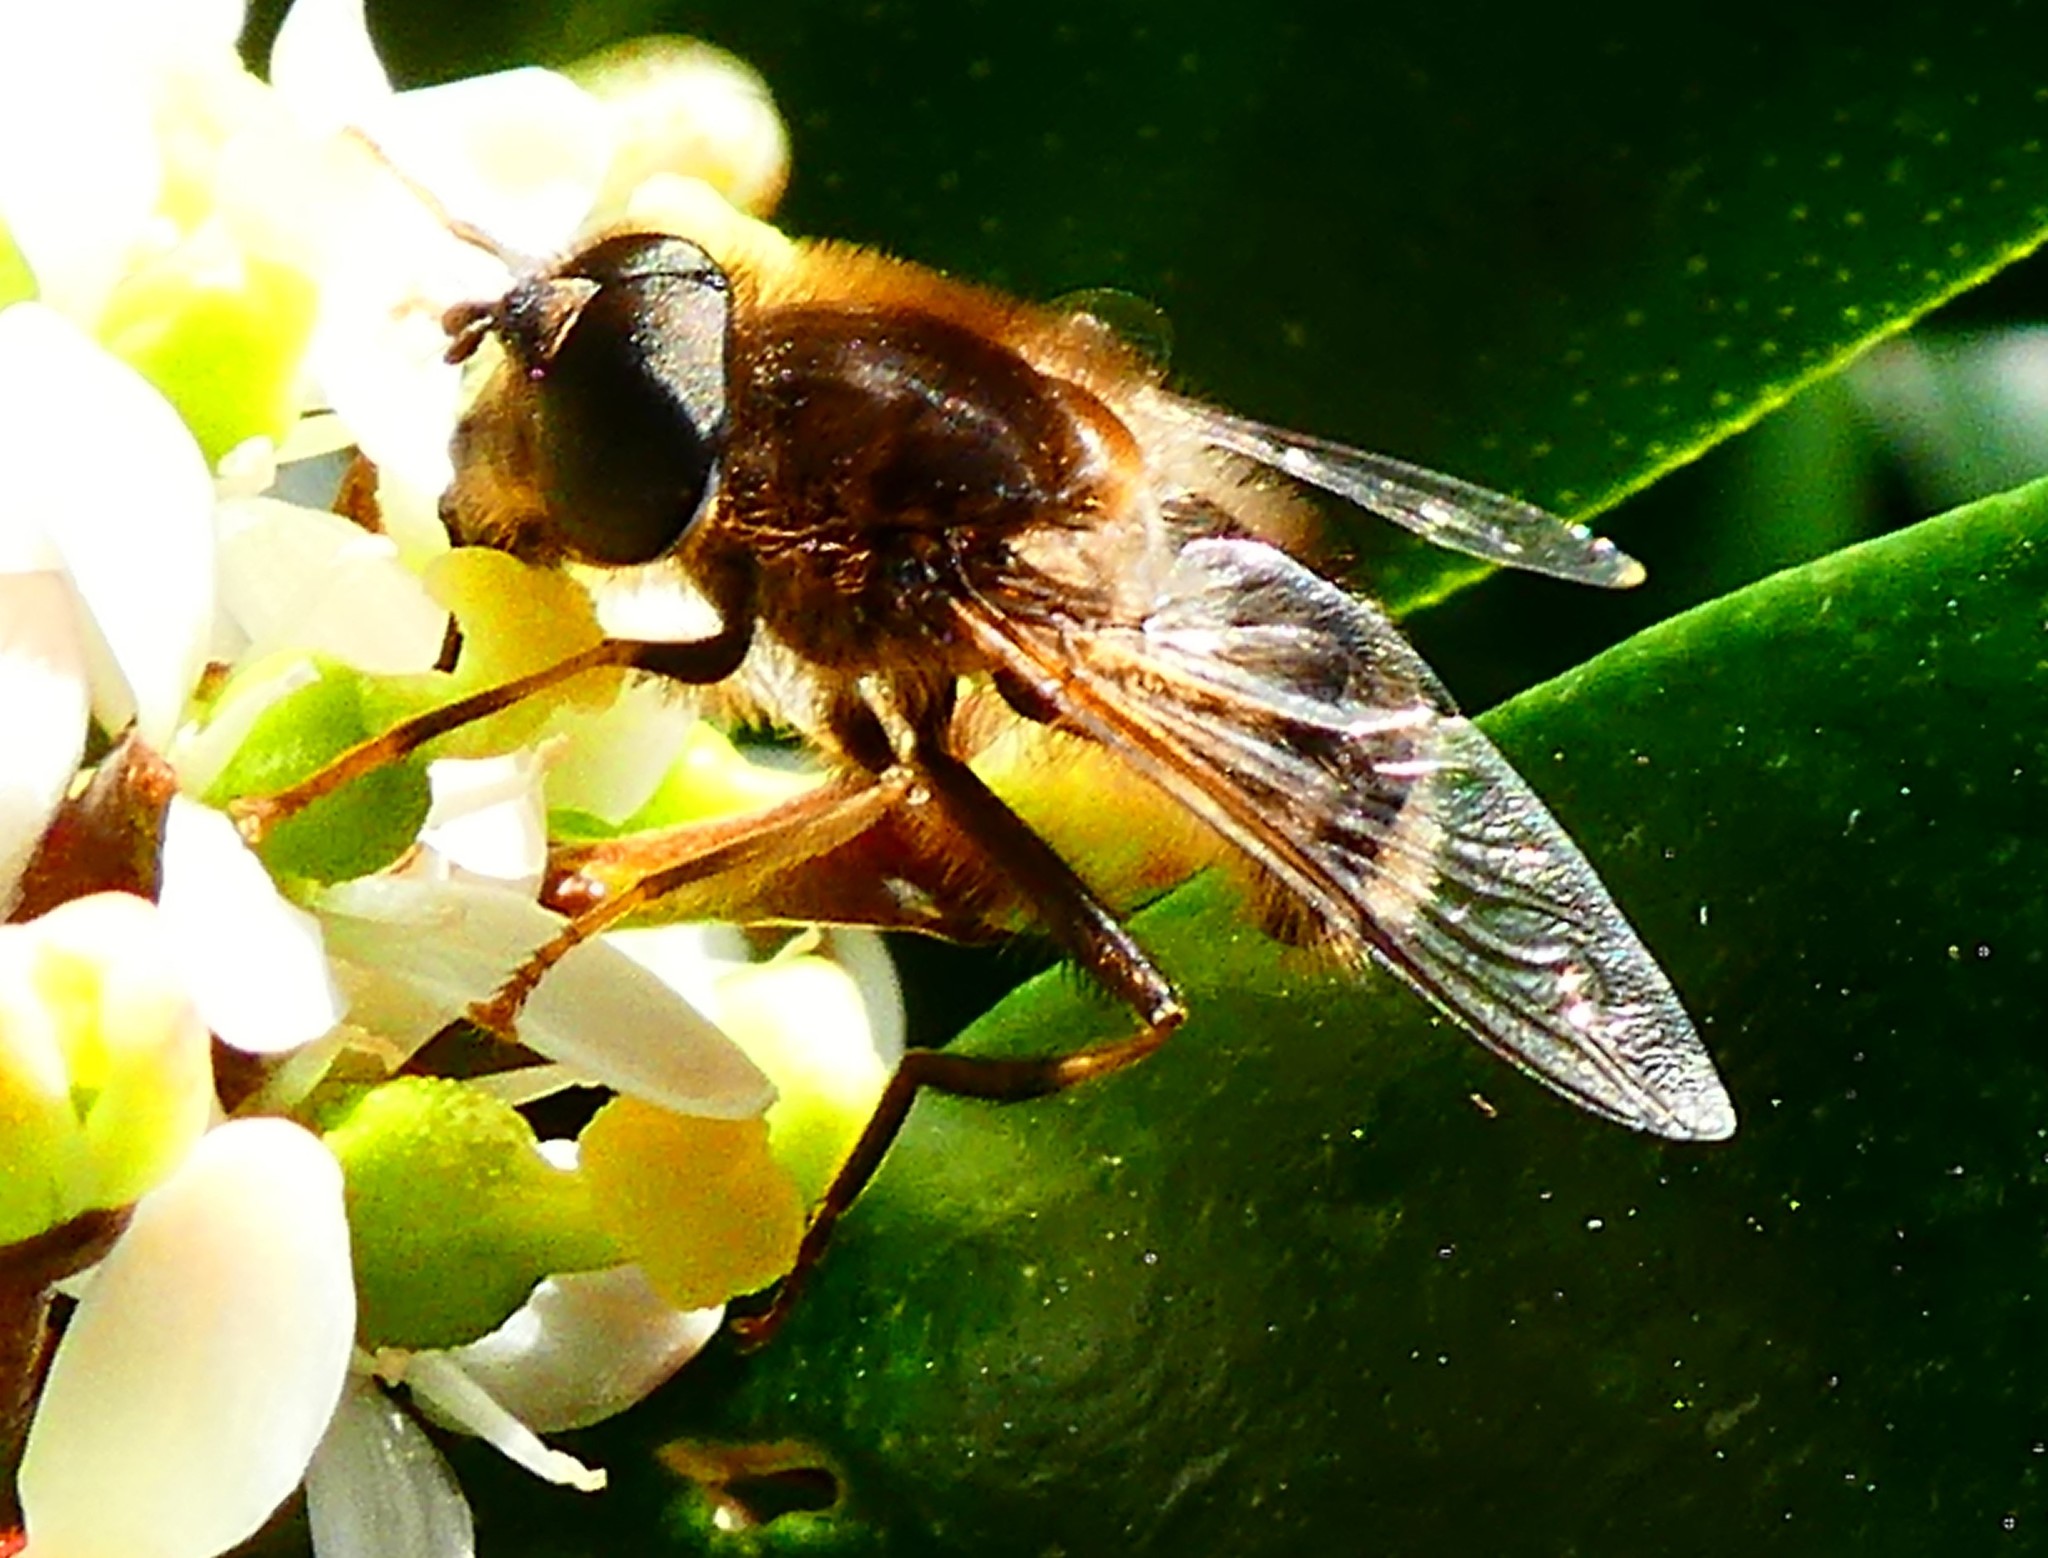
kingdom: Animalia
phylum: Arthropoda
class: Insecta
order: Diptera
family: Syrphidae
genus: Eristalis
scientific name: Eristalis pertinax
